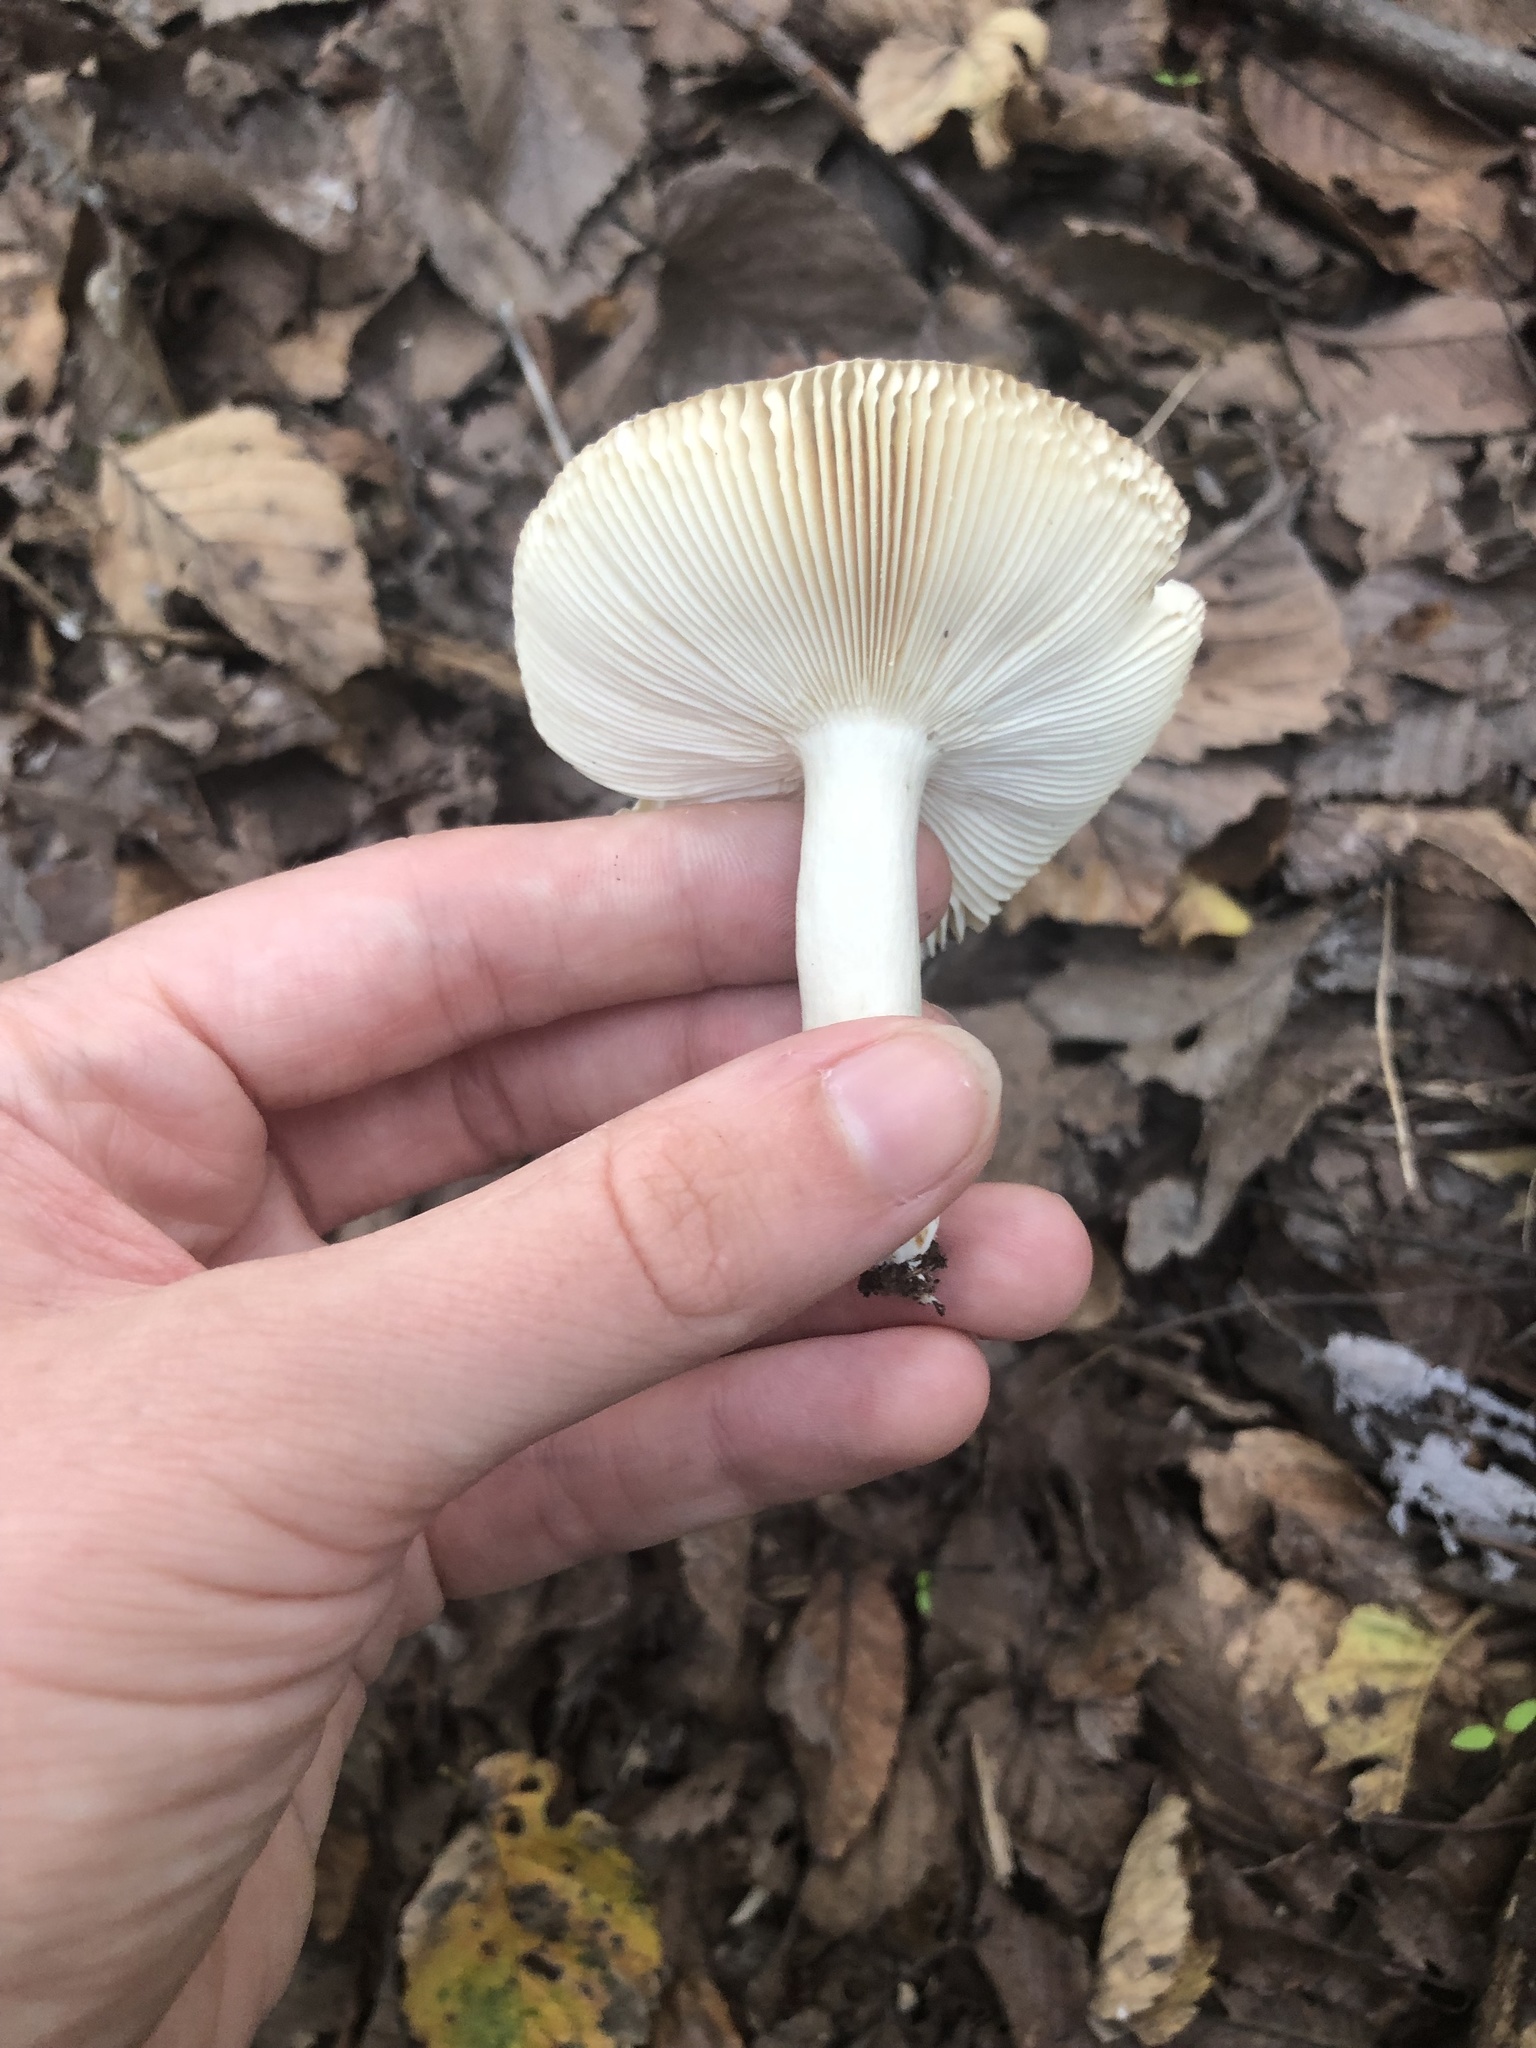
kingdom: Fungi
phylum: Basidiomycota
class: Agaricomycetes
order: Russulales
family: Russulaceae
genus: Russula
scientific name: Russula
